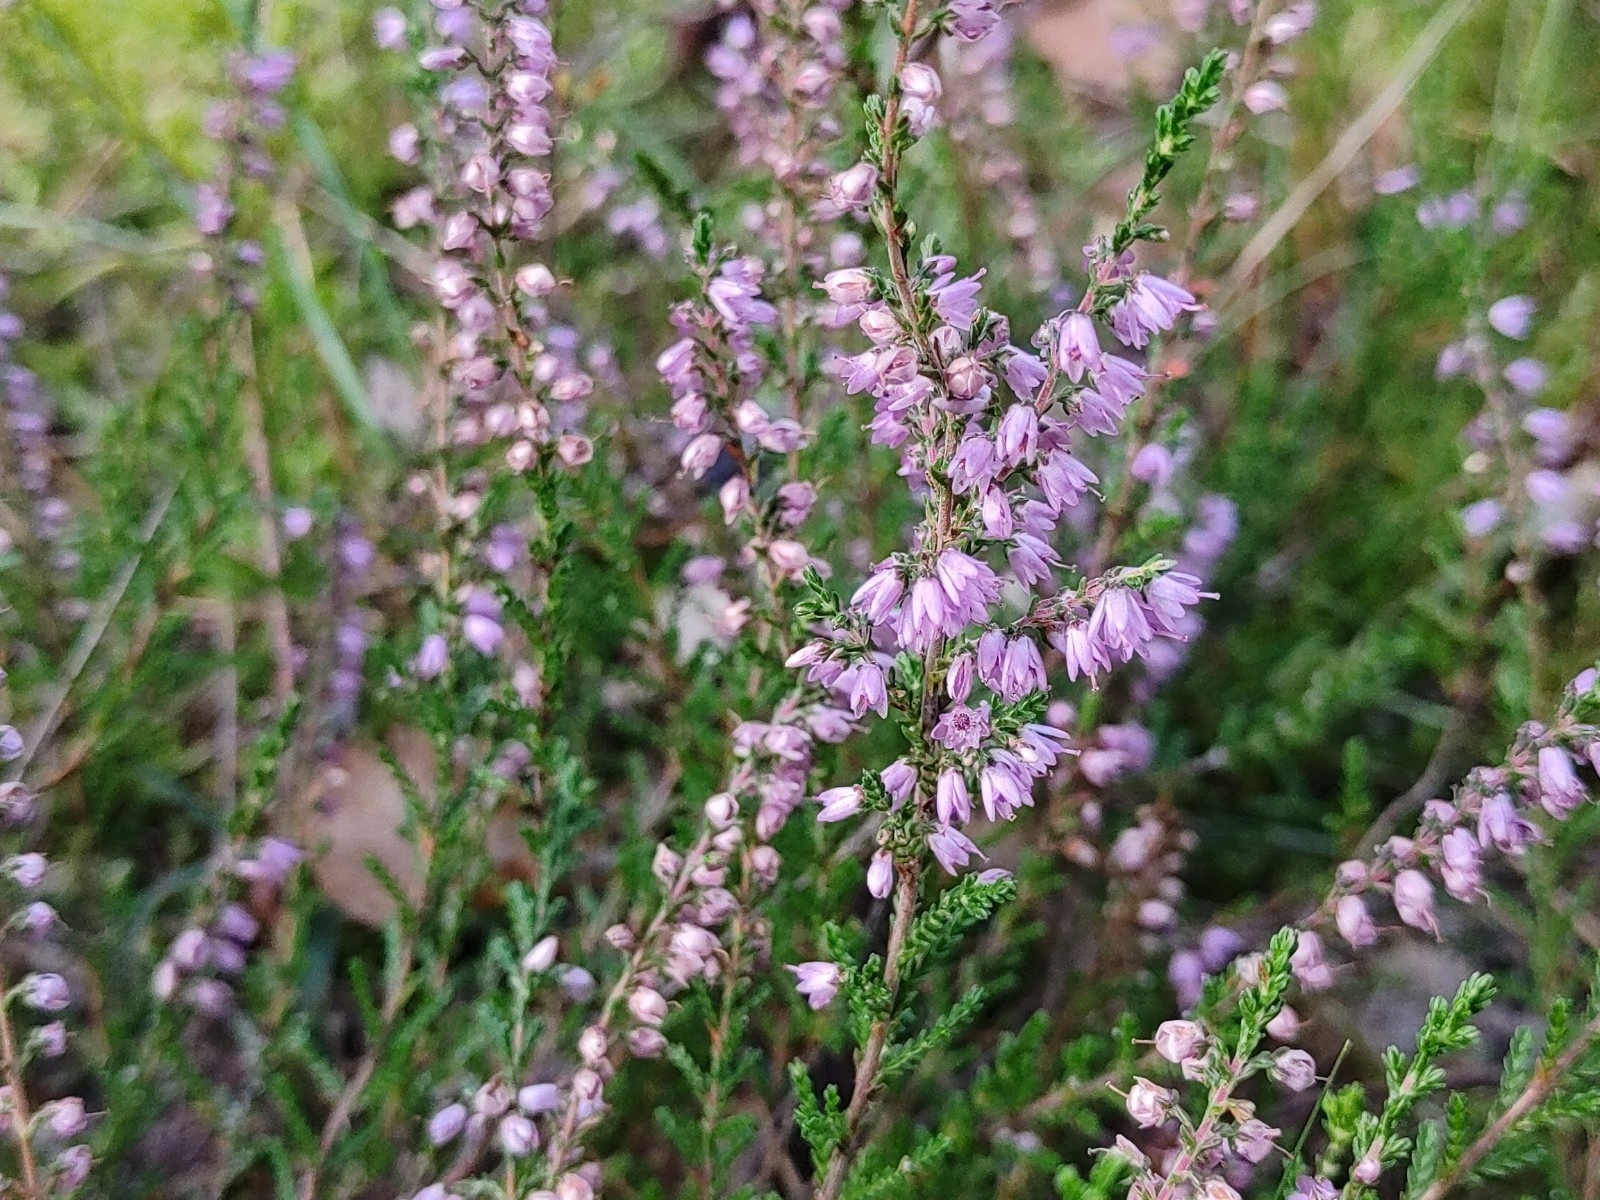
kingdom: Plantae
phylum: Tracheophyta
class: Magnoliopsida
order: Ericales
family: Ericaceae
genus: Calluna
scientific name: Calluna vulgaris
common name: Heather
